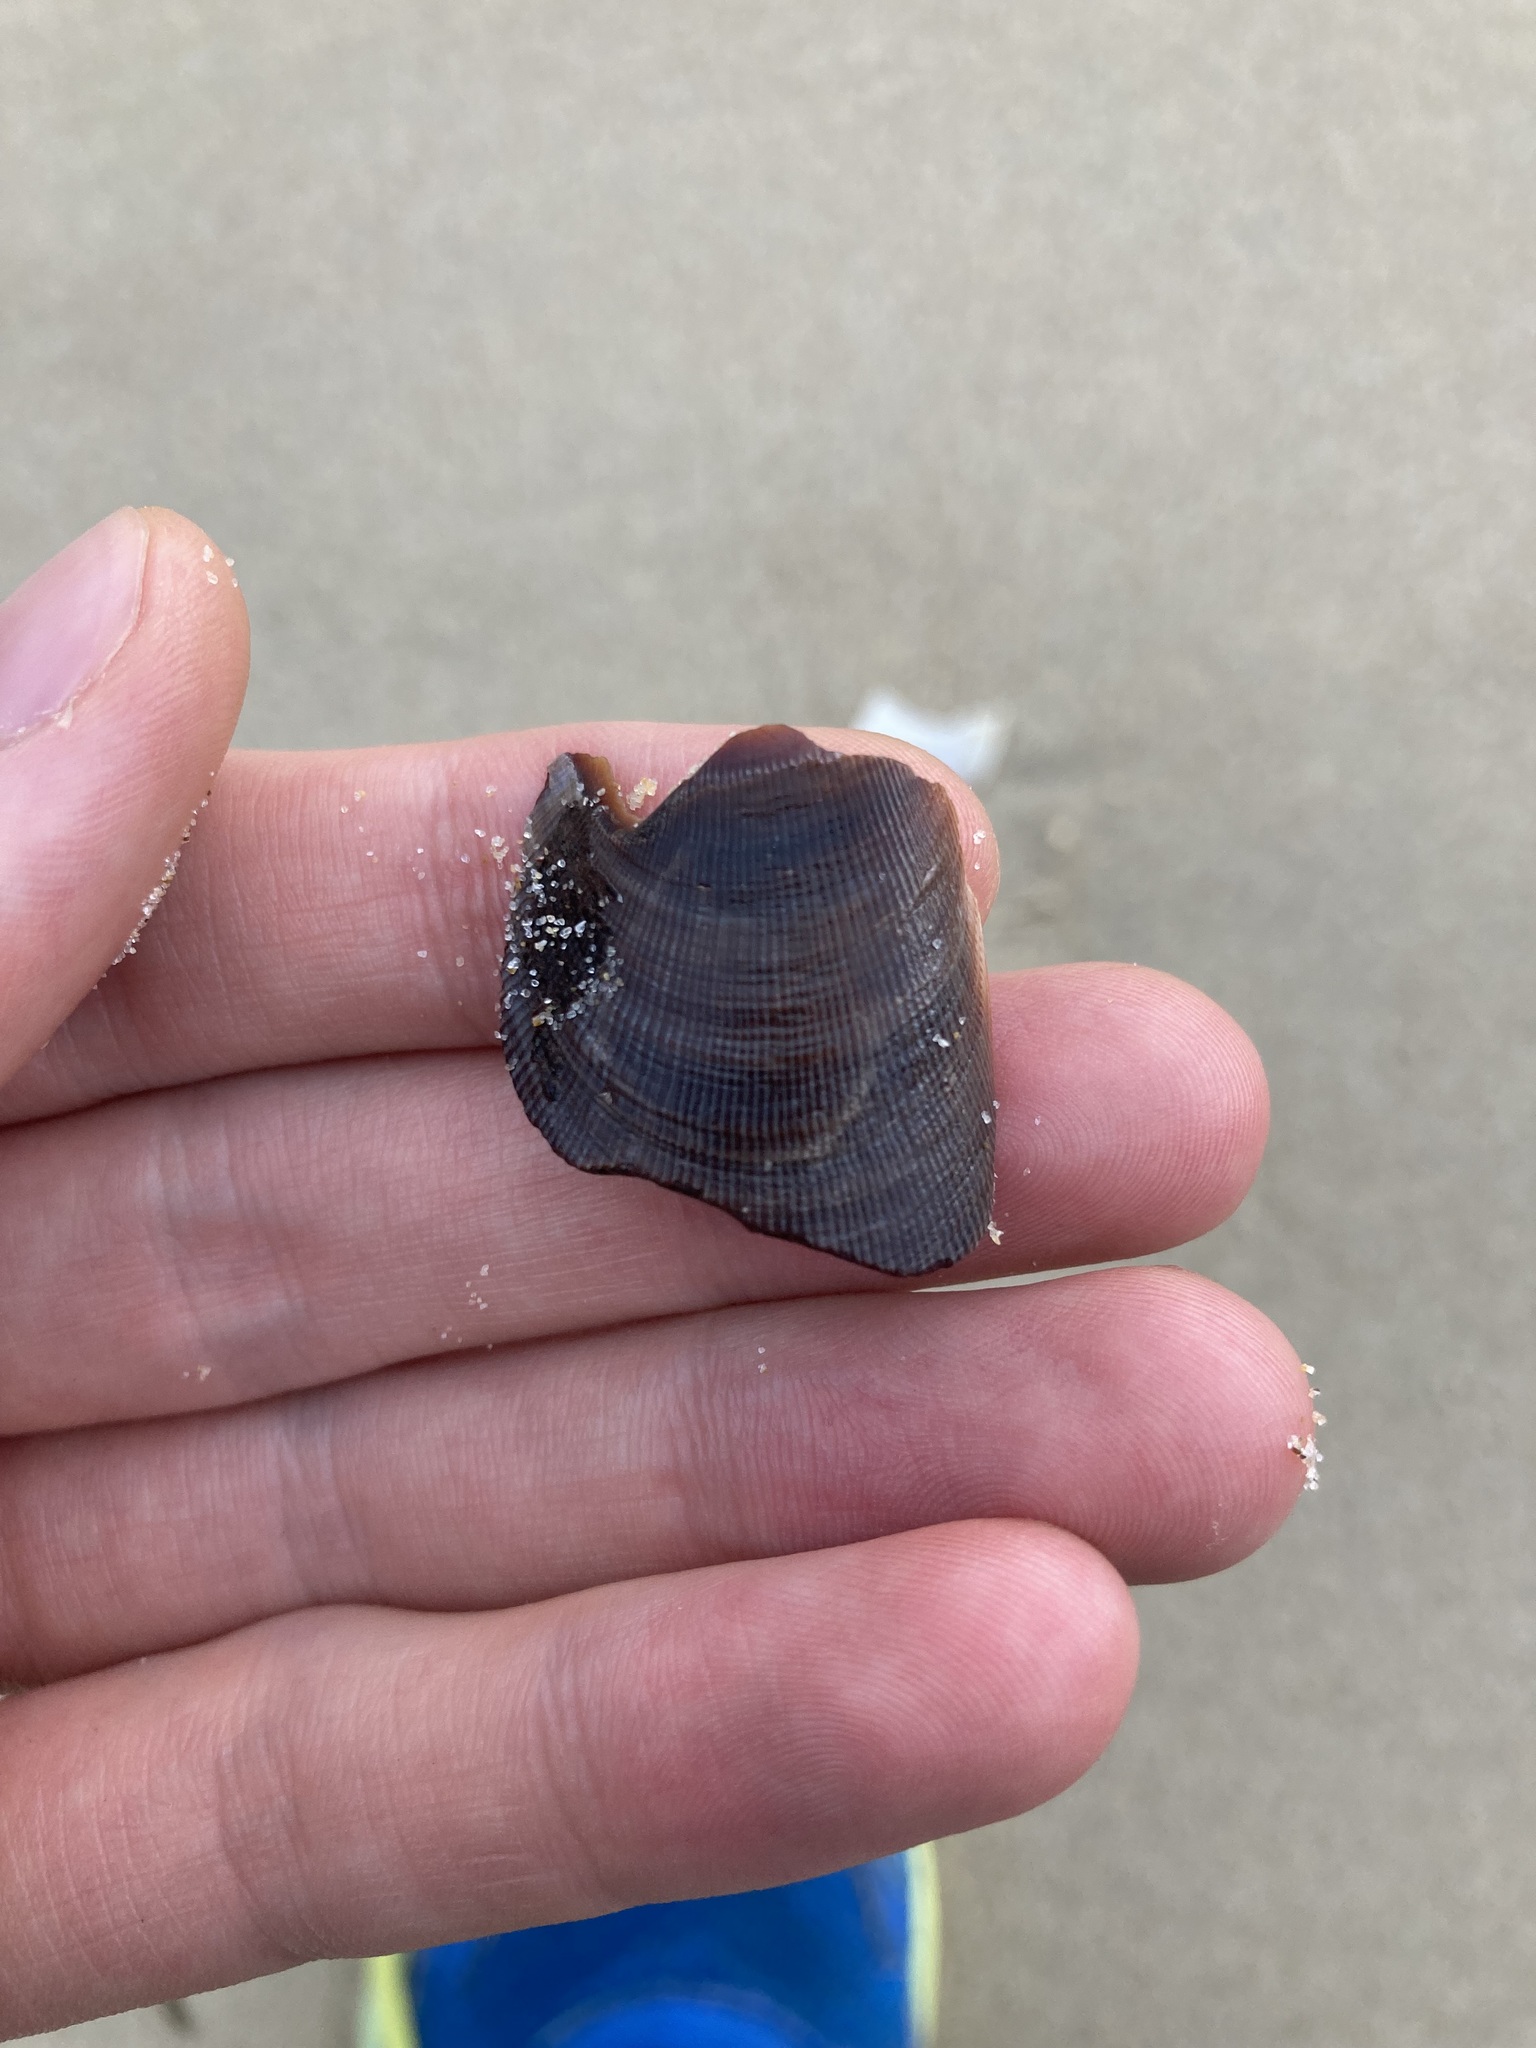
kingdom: Animalia
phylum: Mollusca
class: Bivalvia
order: Mytilida
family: Mytilidae
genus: Trichomya
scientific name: Trichomya hirsuta
